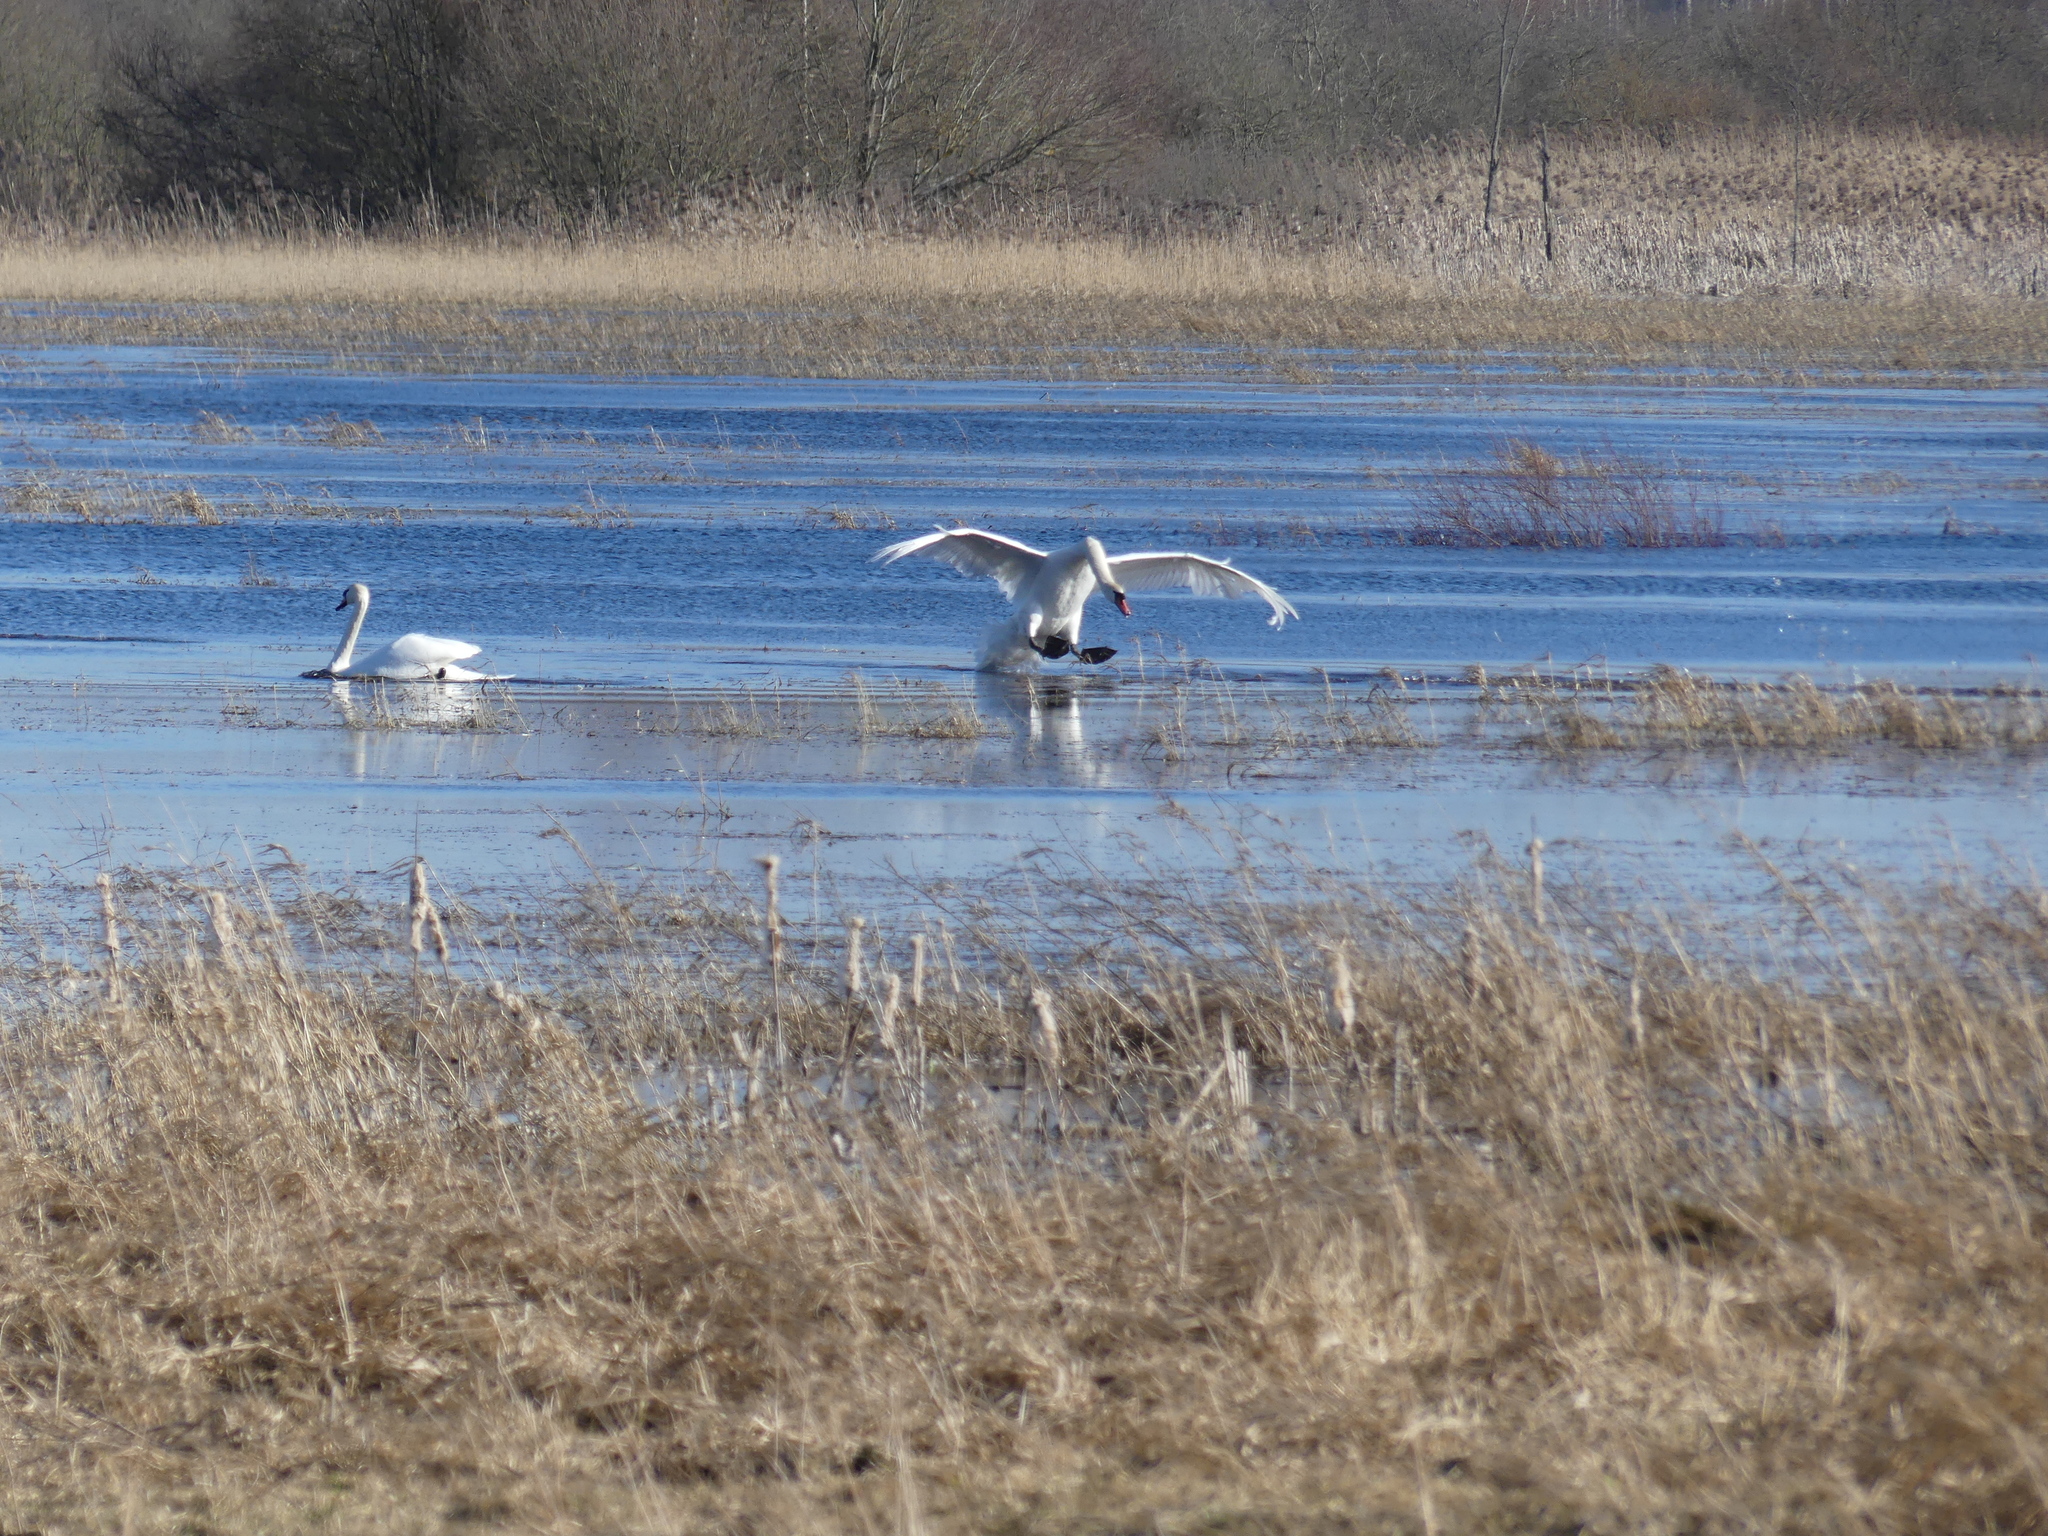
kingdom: Animalia
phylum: Chordata
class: Aves
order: Anseriformes
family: Anatidae
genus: Cygnus
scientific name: Cygnus olor
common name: Mute swan
